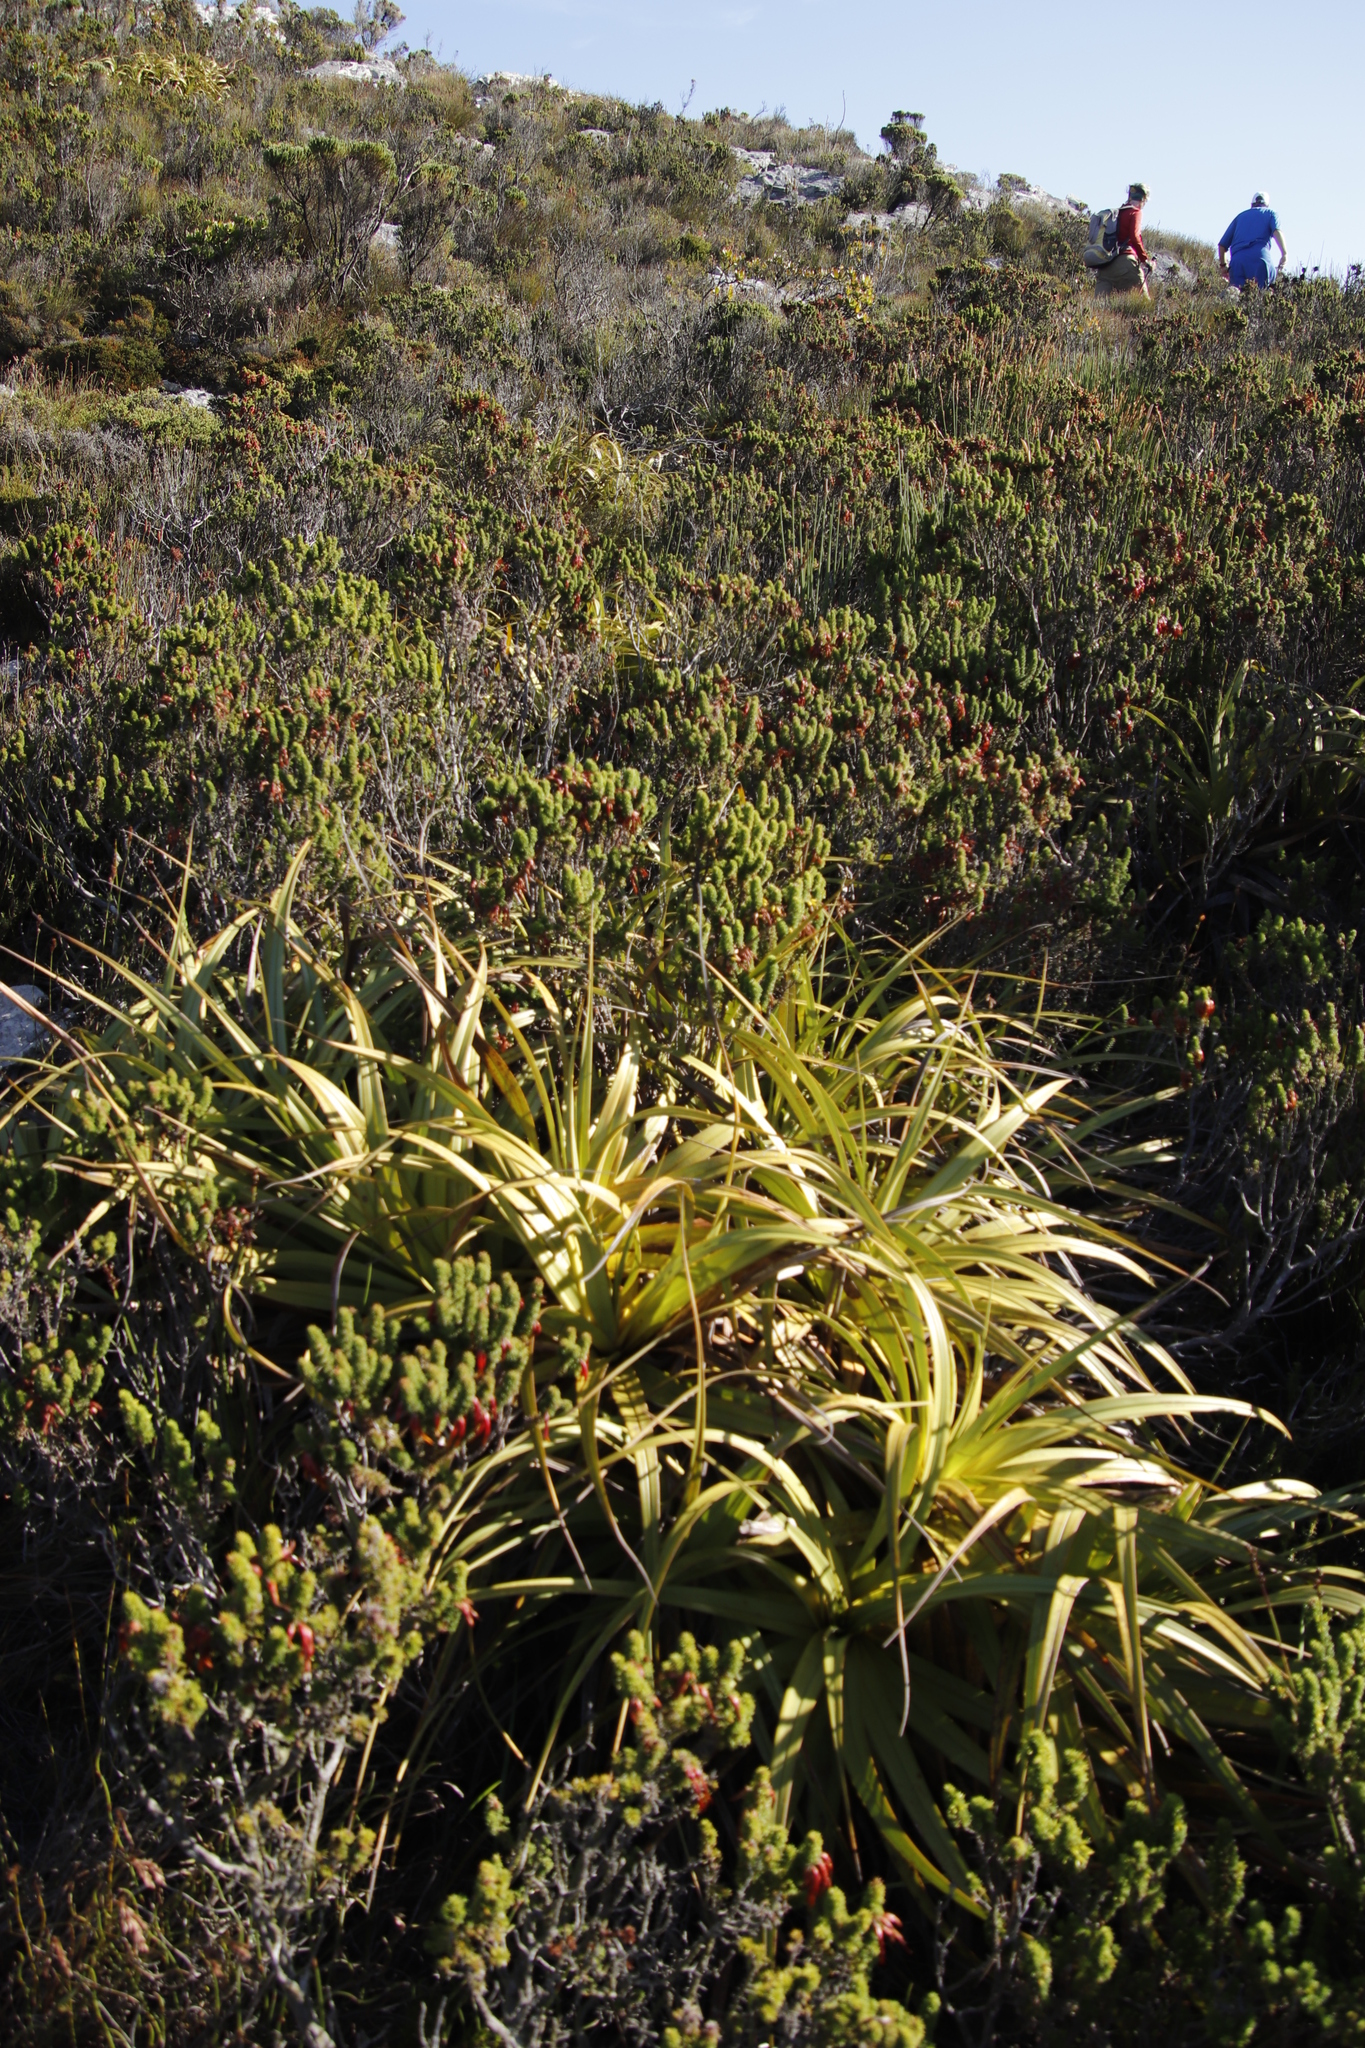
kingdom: Plantae
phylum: Tracheophyta
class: Liliopsida
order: Poales
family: Cyperaceae
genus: Tetraria
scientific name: Tetraria thermalis
